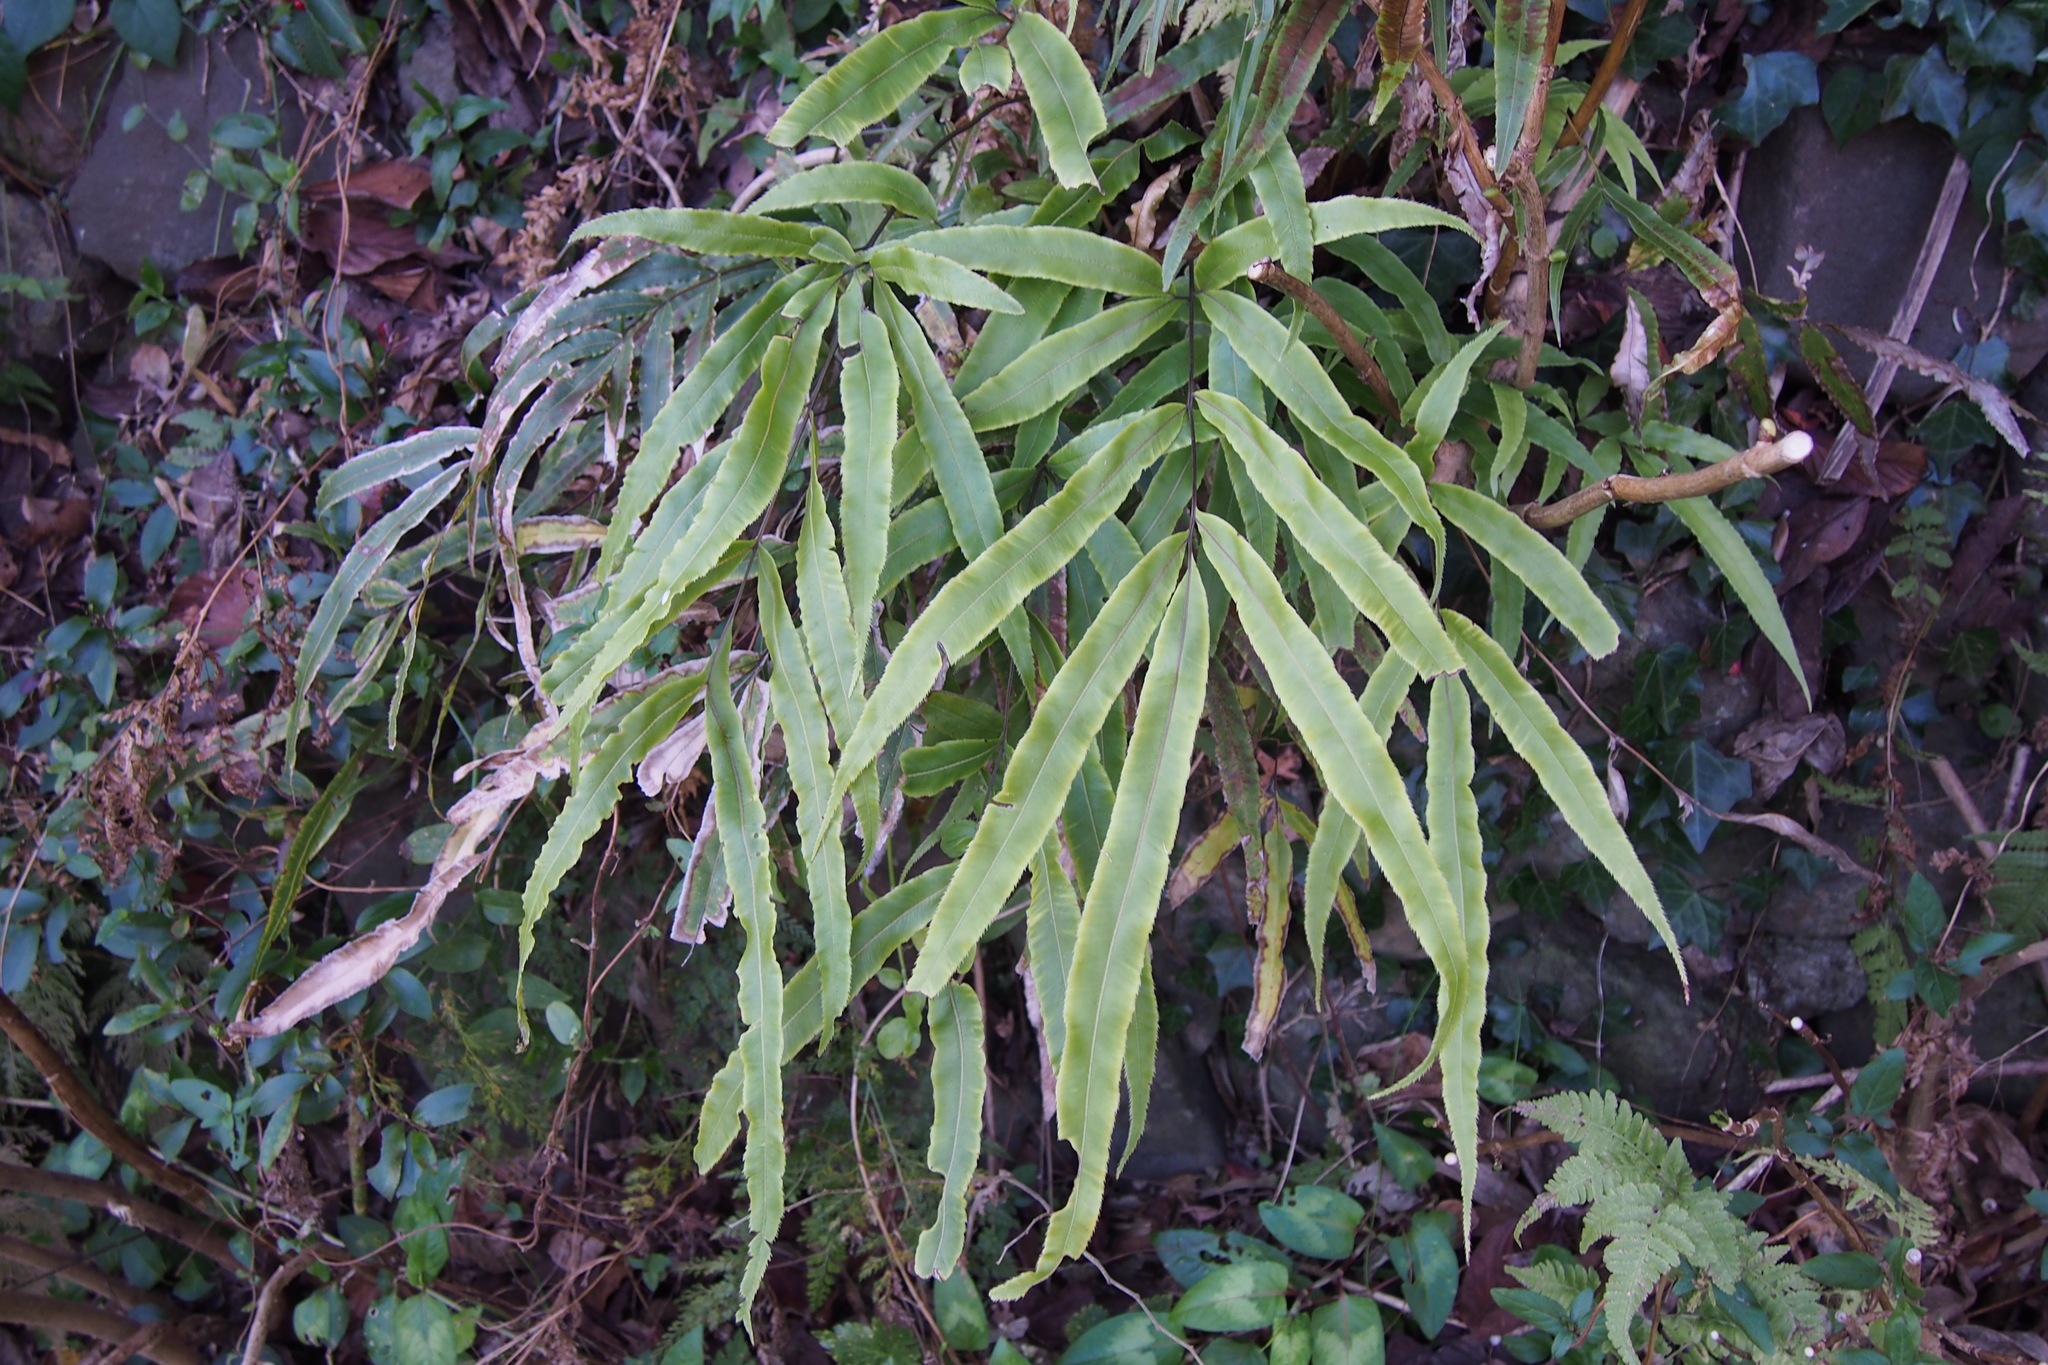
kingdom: Plantae
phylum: Tracheophyta
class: Polypodiopsida
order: Polypodiales
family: Pteridaceae
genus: Pteris
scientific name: Pteris cretica
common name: Ribbon fern
